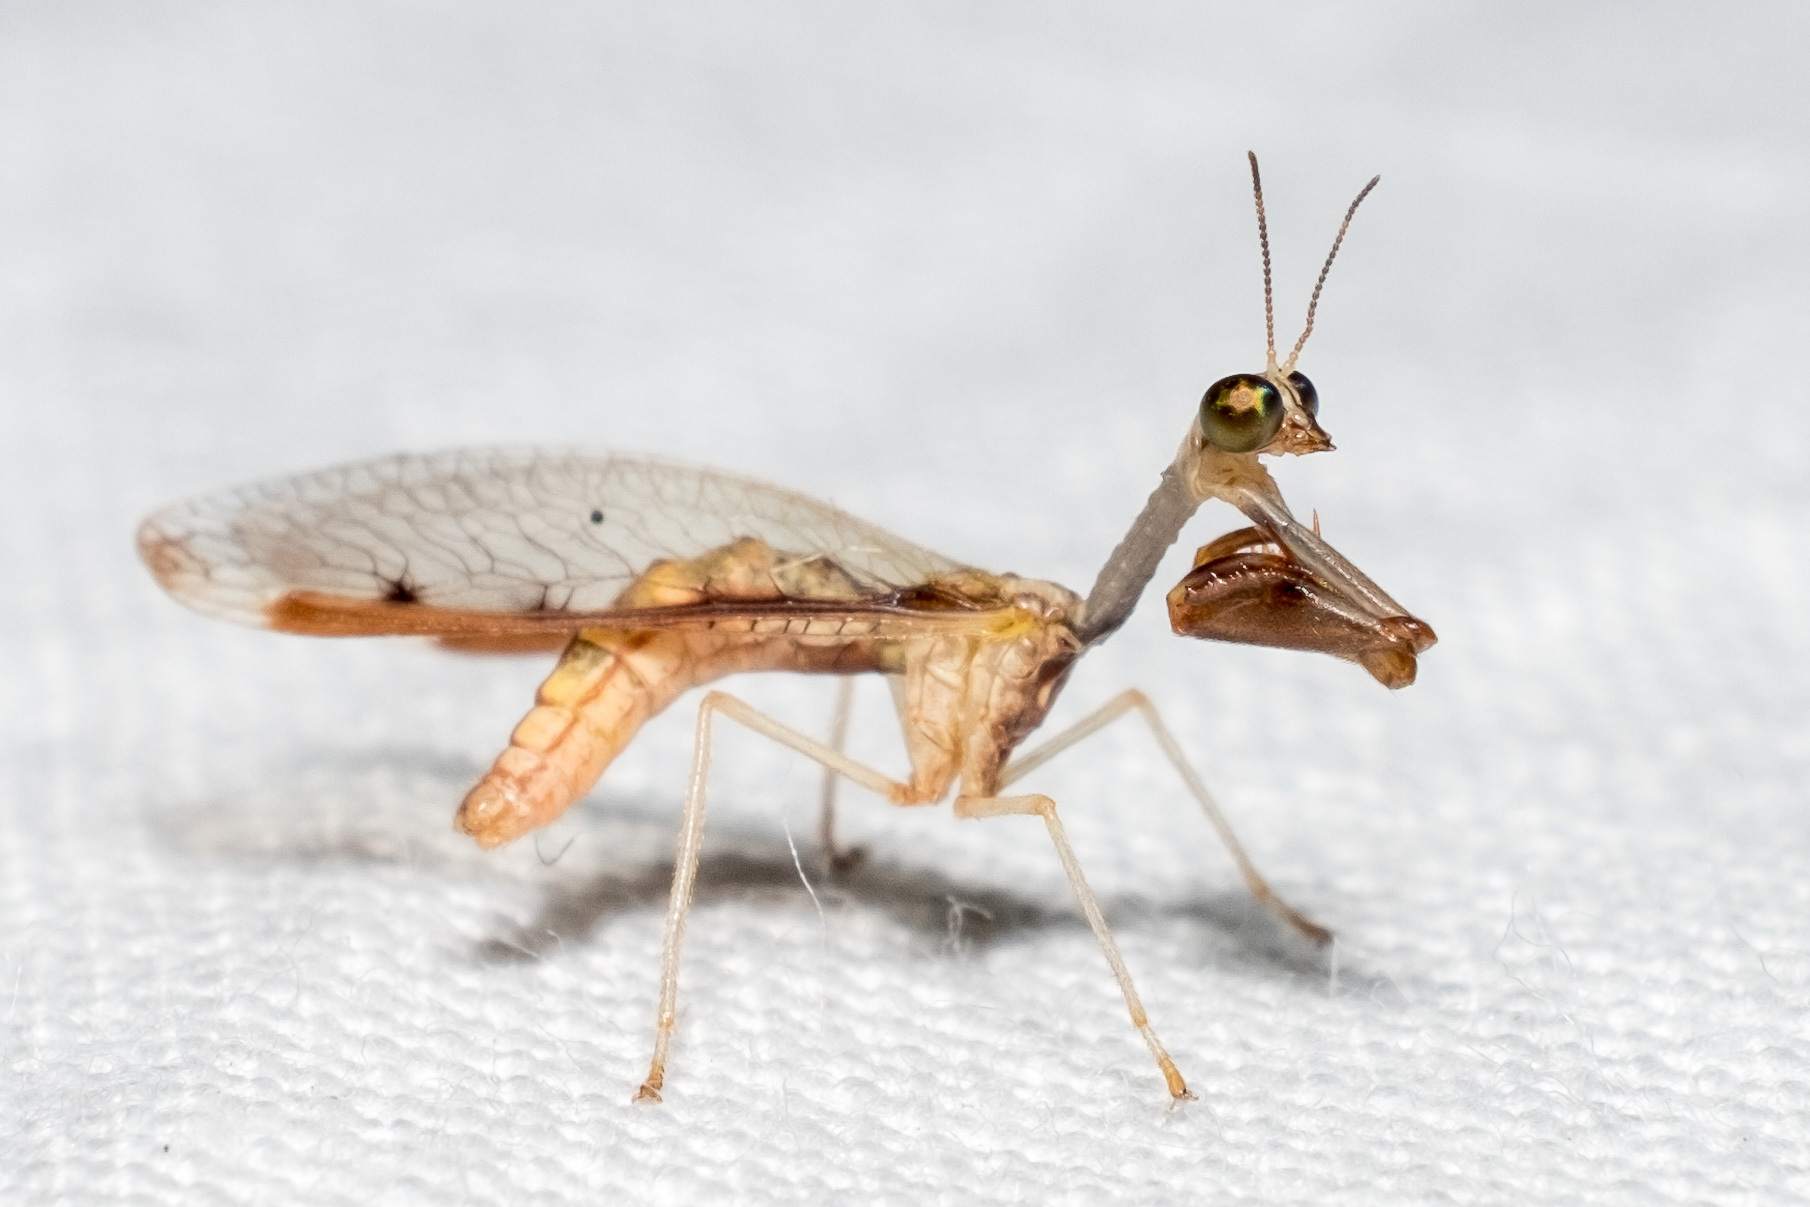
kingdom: Animalia
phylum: Arthropoda
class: Insecta
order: Neuroptera
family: Mantispidae
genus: Dicromantispa
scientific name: Dicromantispa interrupta
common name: Four-spotted mantidfly
